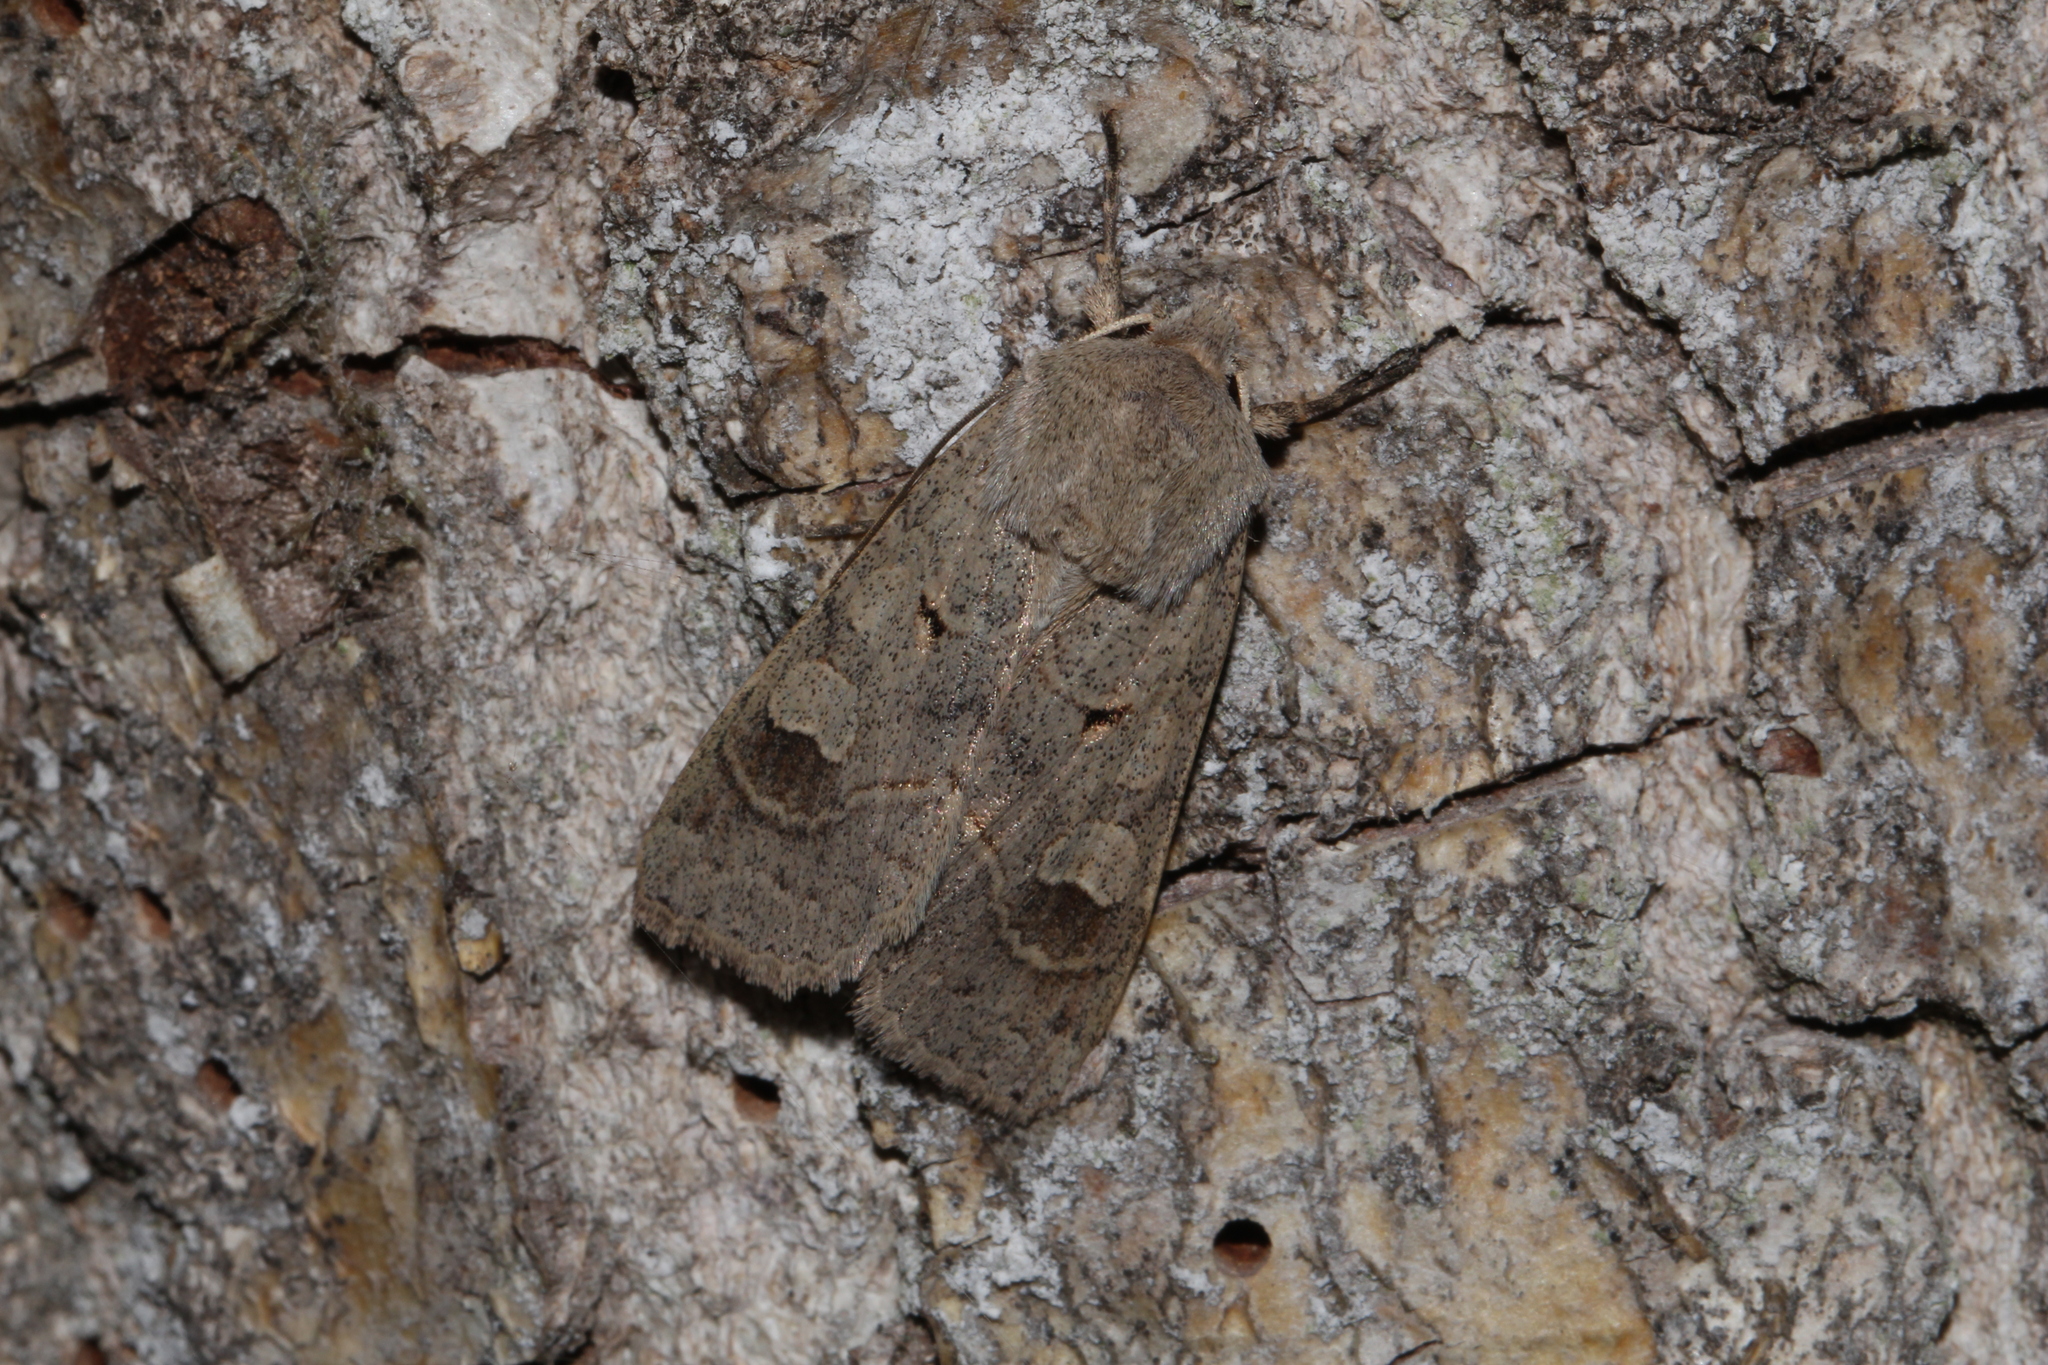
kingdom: Animalia
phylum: Arthropoda
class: Insecta
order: Lepidoptera
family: Noctuidae
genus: Ammoconia
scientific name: Ammoconia caecimacula
